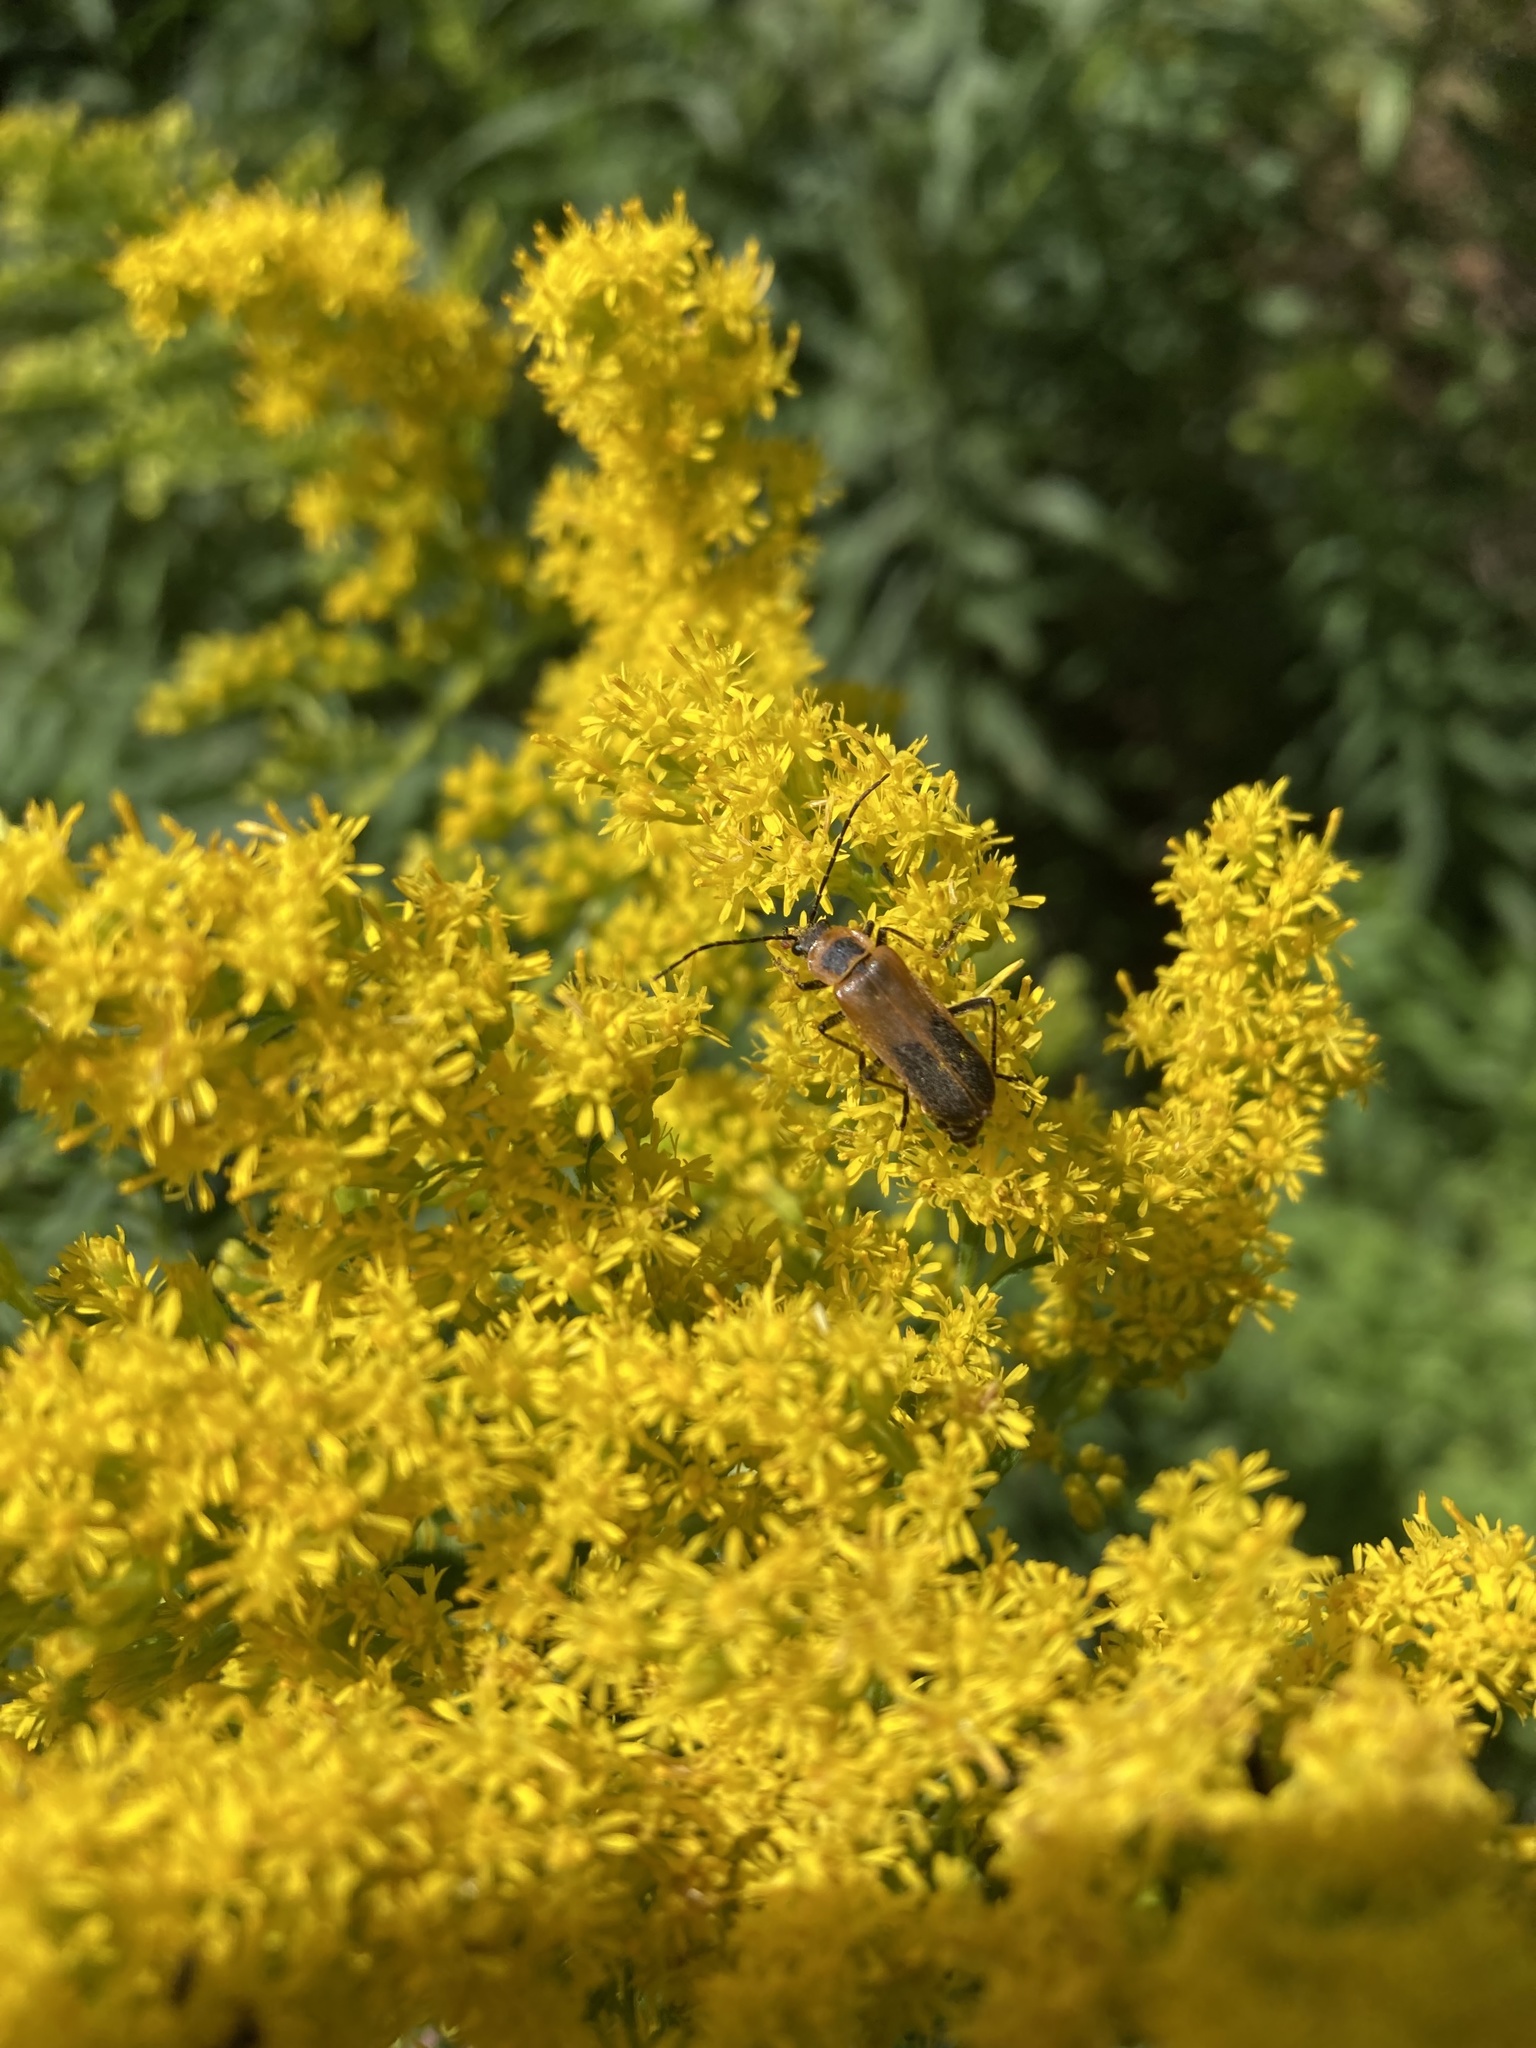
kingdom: Animalia
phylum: Arthropoda
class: Insecta
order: Coleoptera
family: Cantharidae
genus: Chauliognathus
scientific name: Chauliognathus pensylvanicus
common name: Goldenrod soldier beetle
